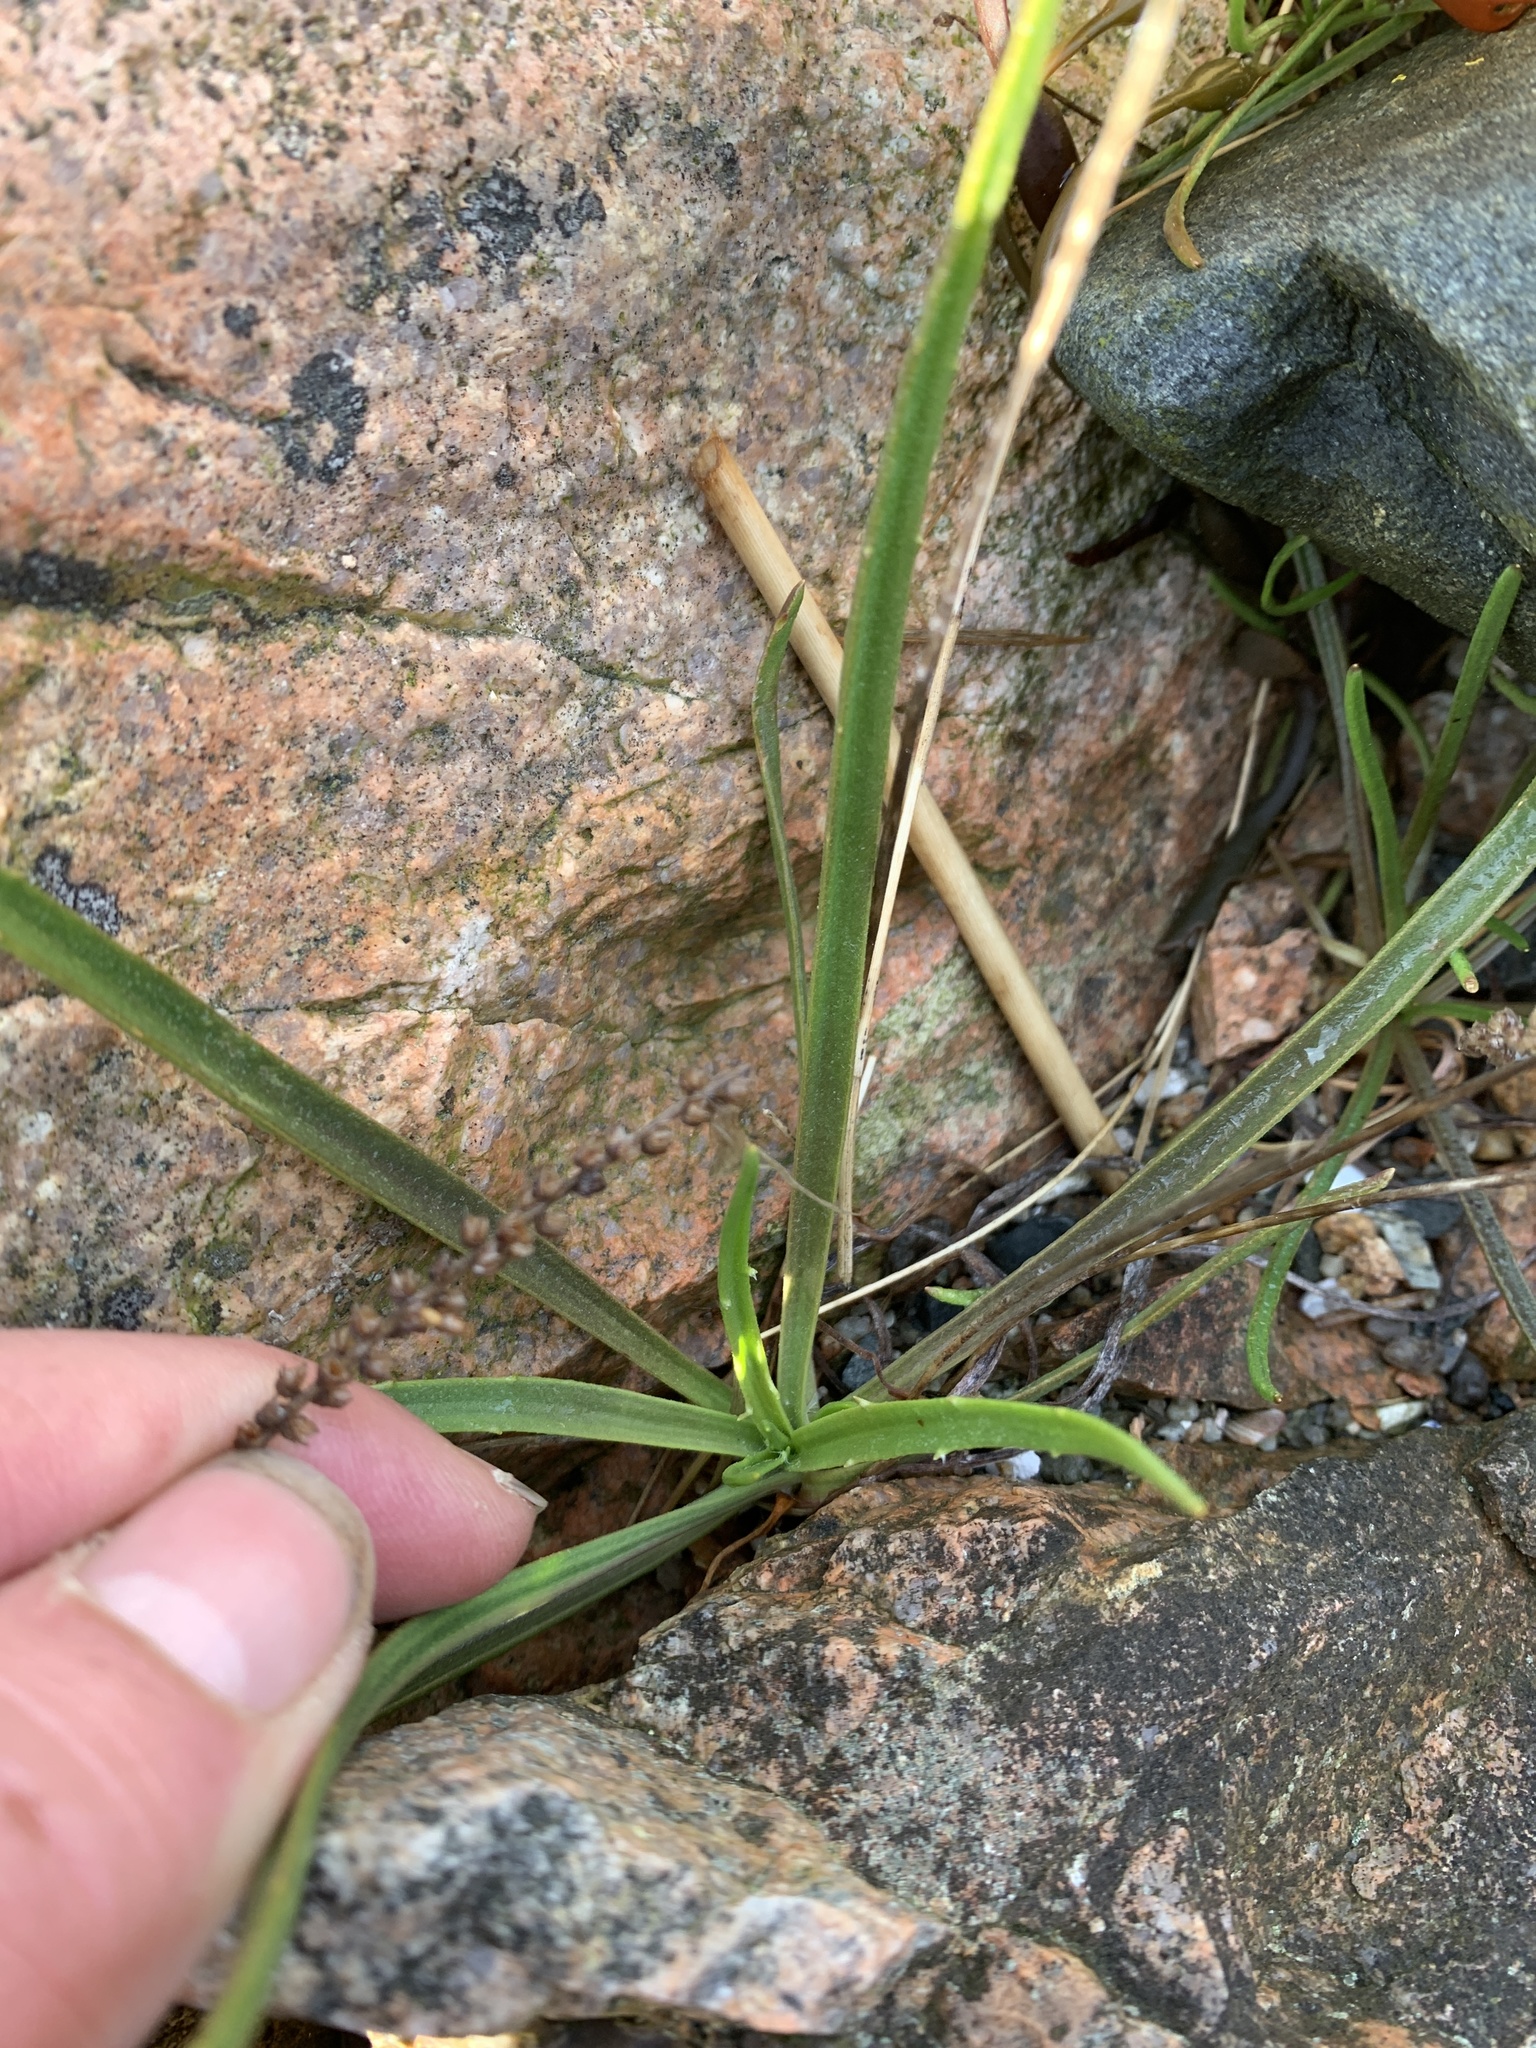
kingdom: Plantae
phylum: Tracheophyta
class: Magnoliopsida
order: Lamiales
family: Plantaginaceae
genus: Plantago
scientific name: Plantago maritima
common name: Sea plantain
